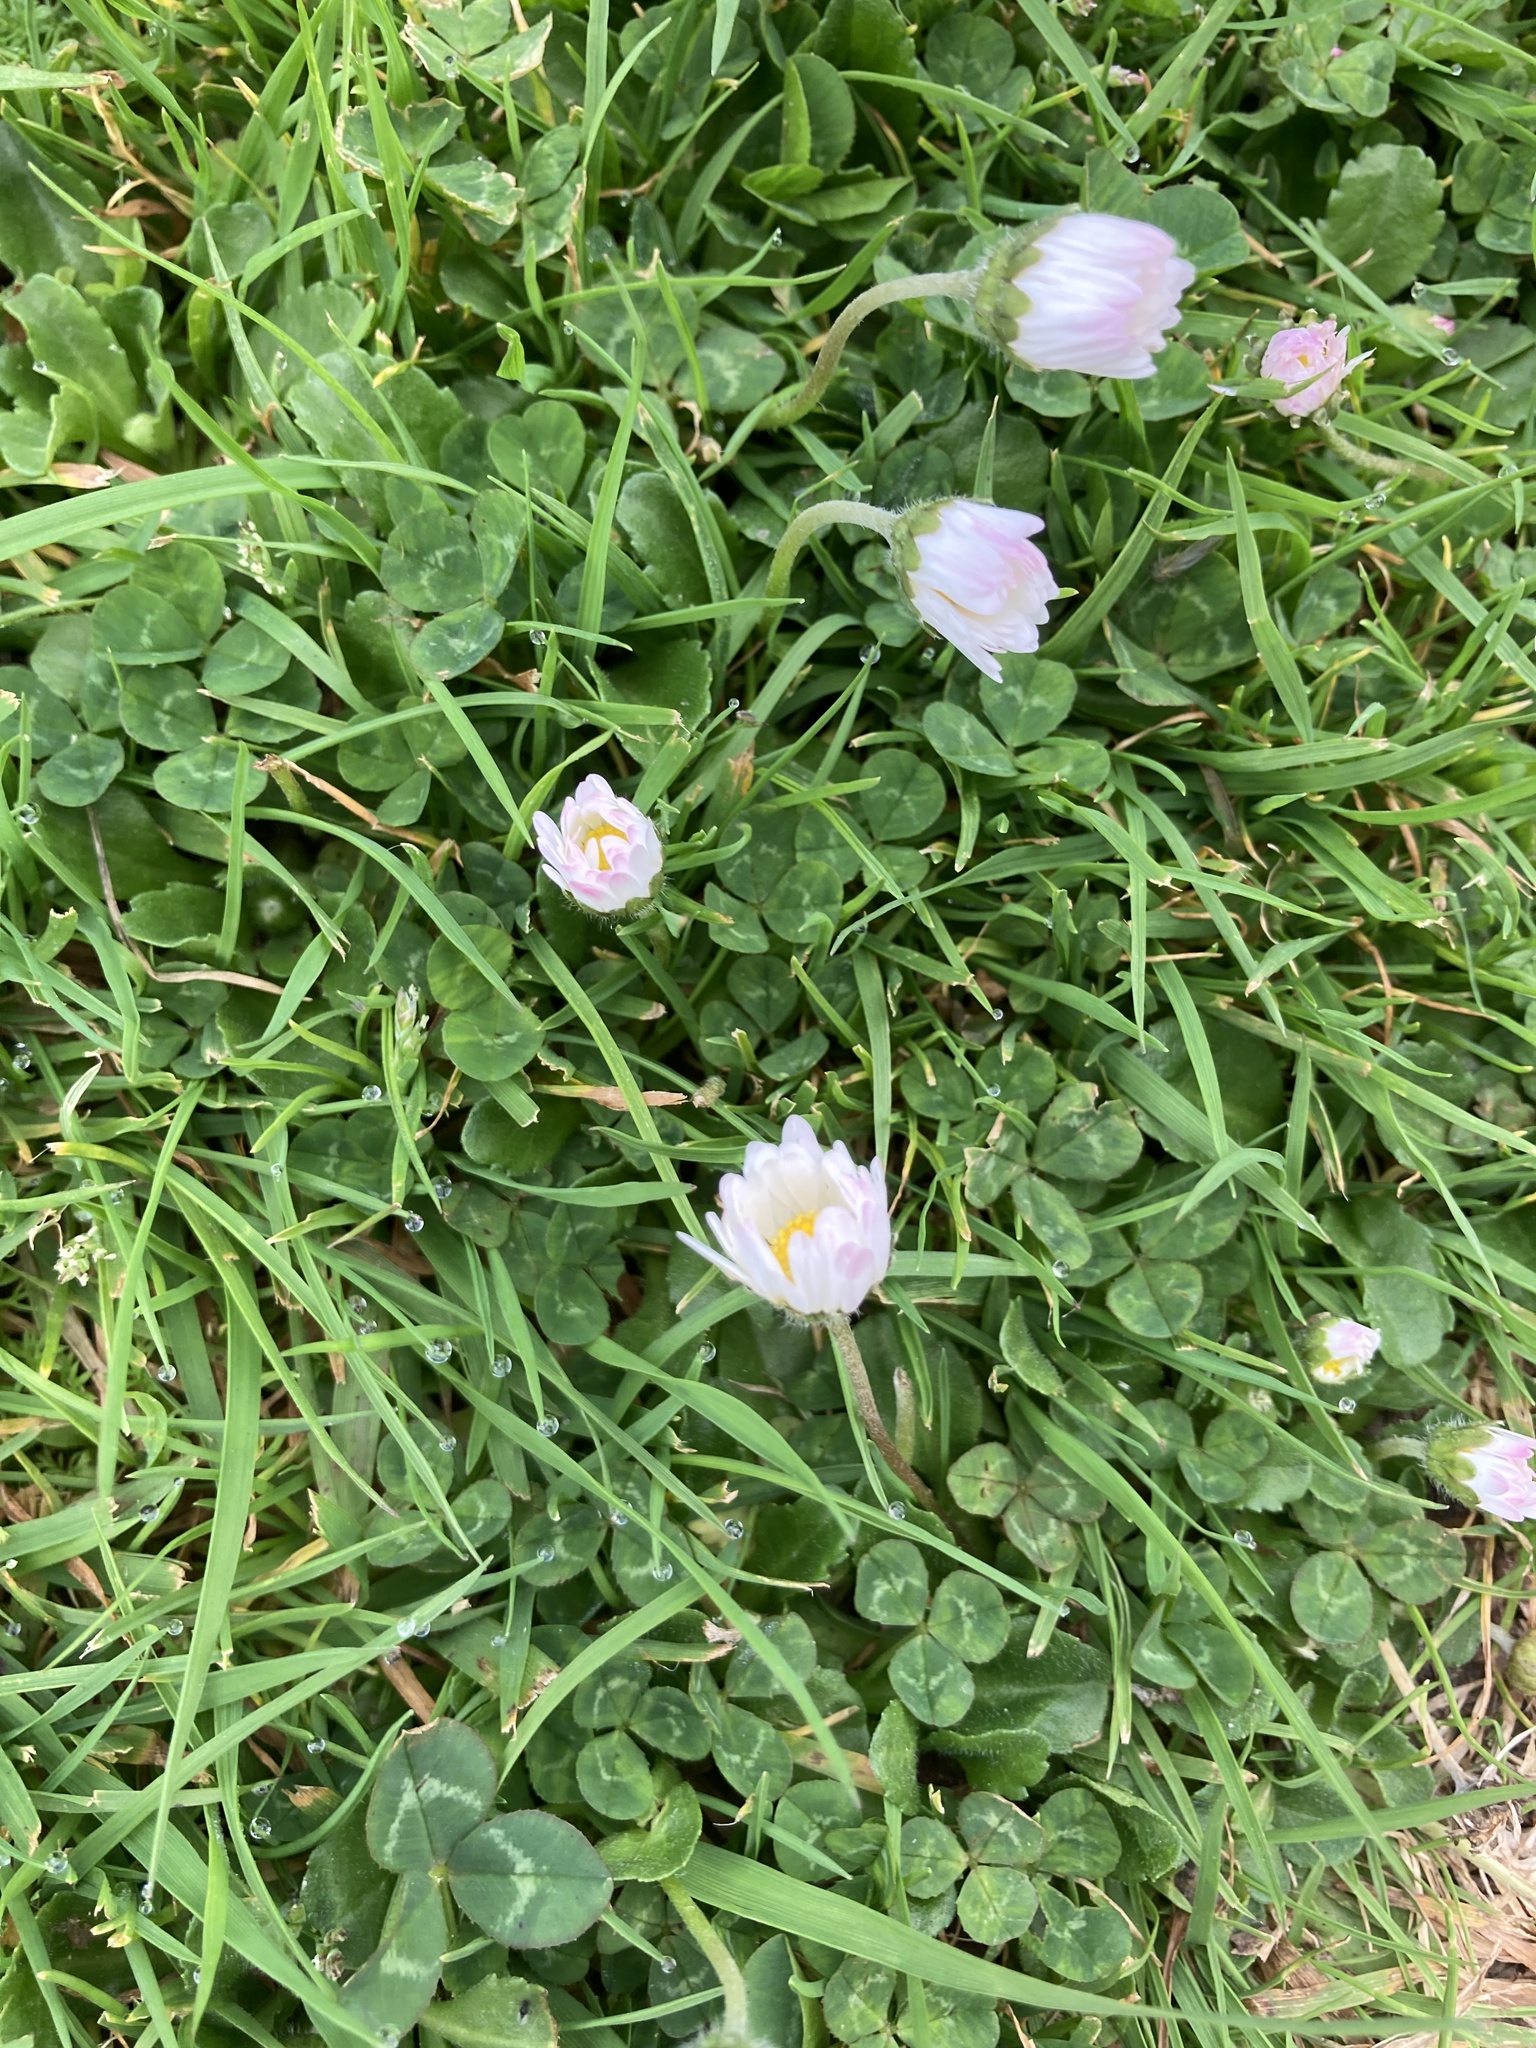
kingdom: Plantae
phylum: Tracheophyta
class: Magnoliopsida
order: Asterales
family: Asteraceae
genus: Bellis
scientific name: Bellis perennis
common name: Lawndaisy
